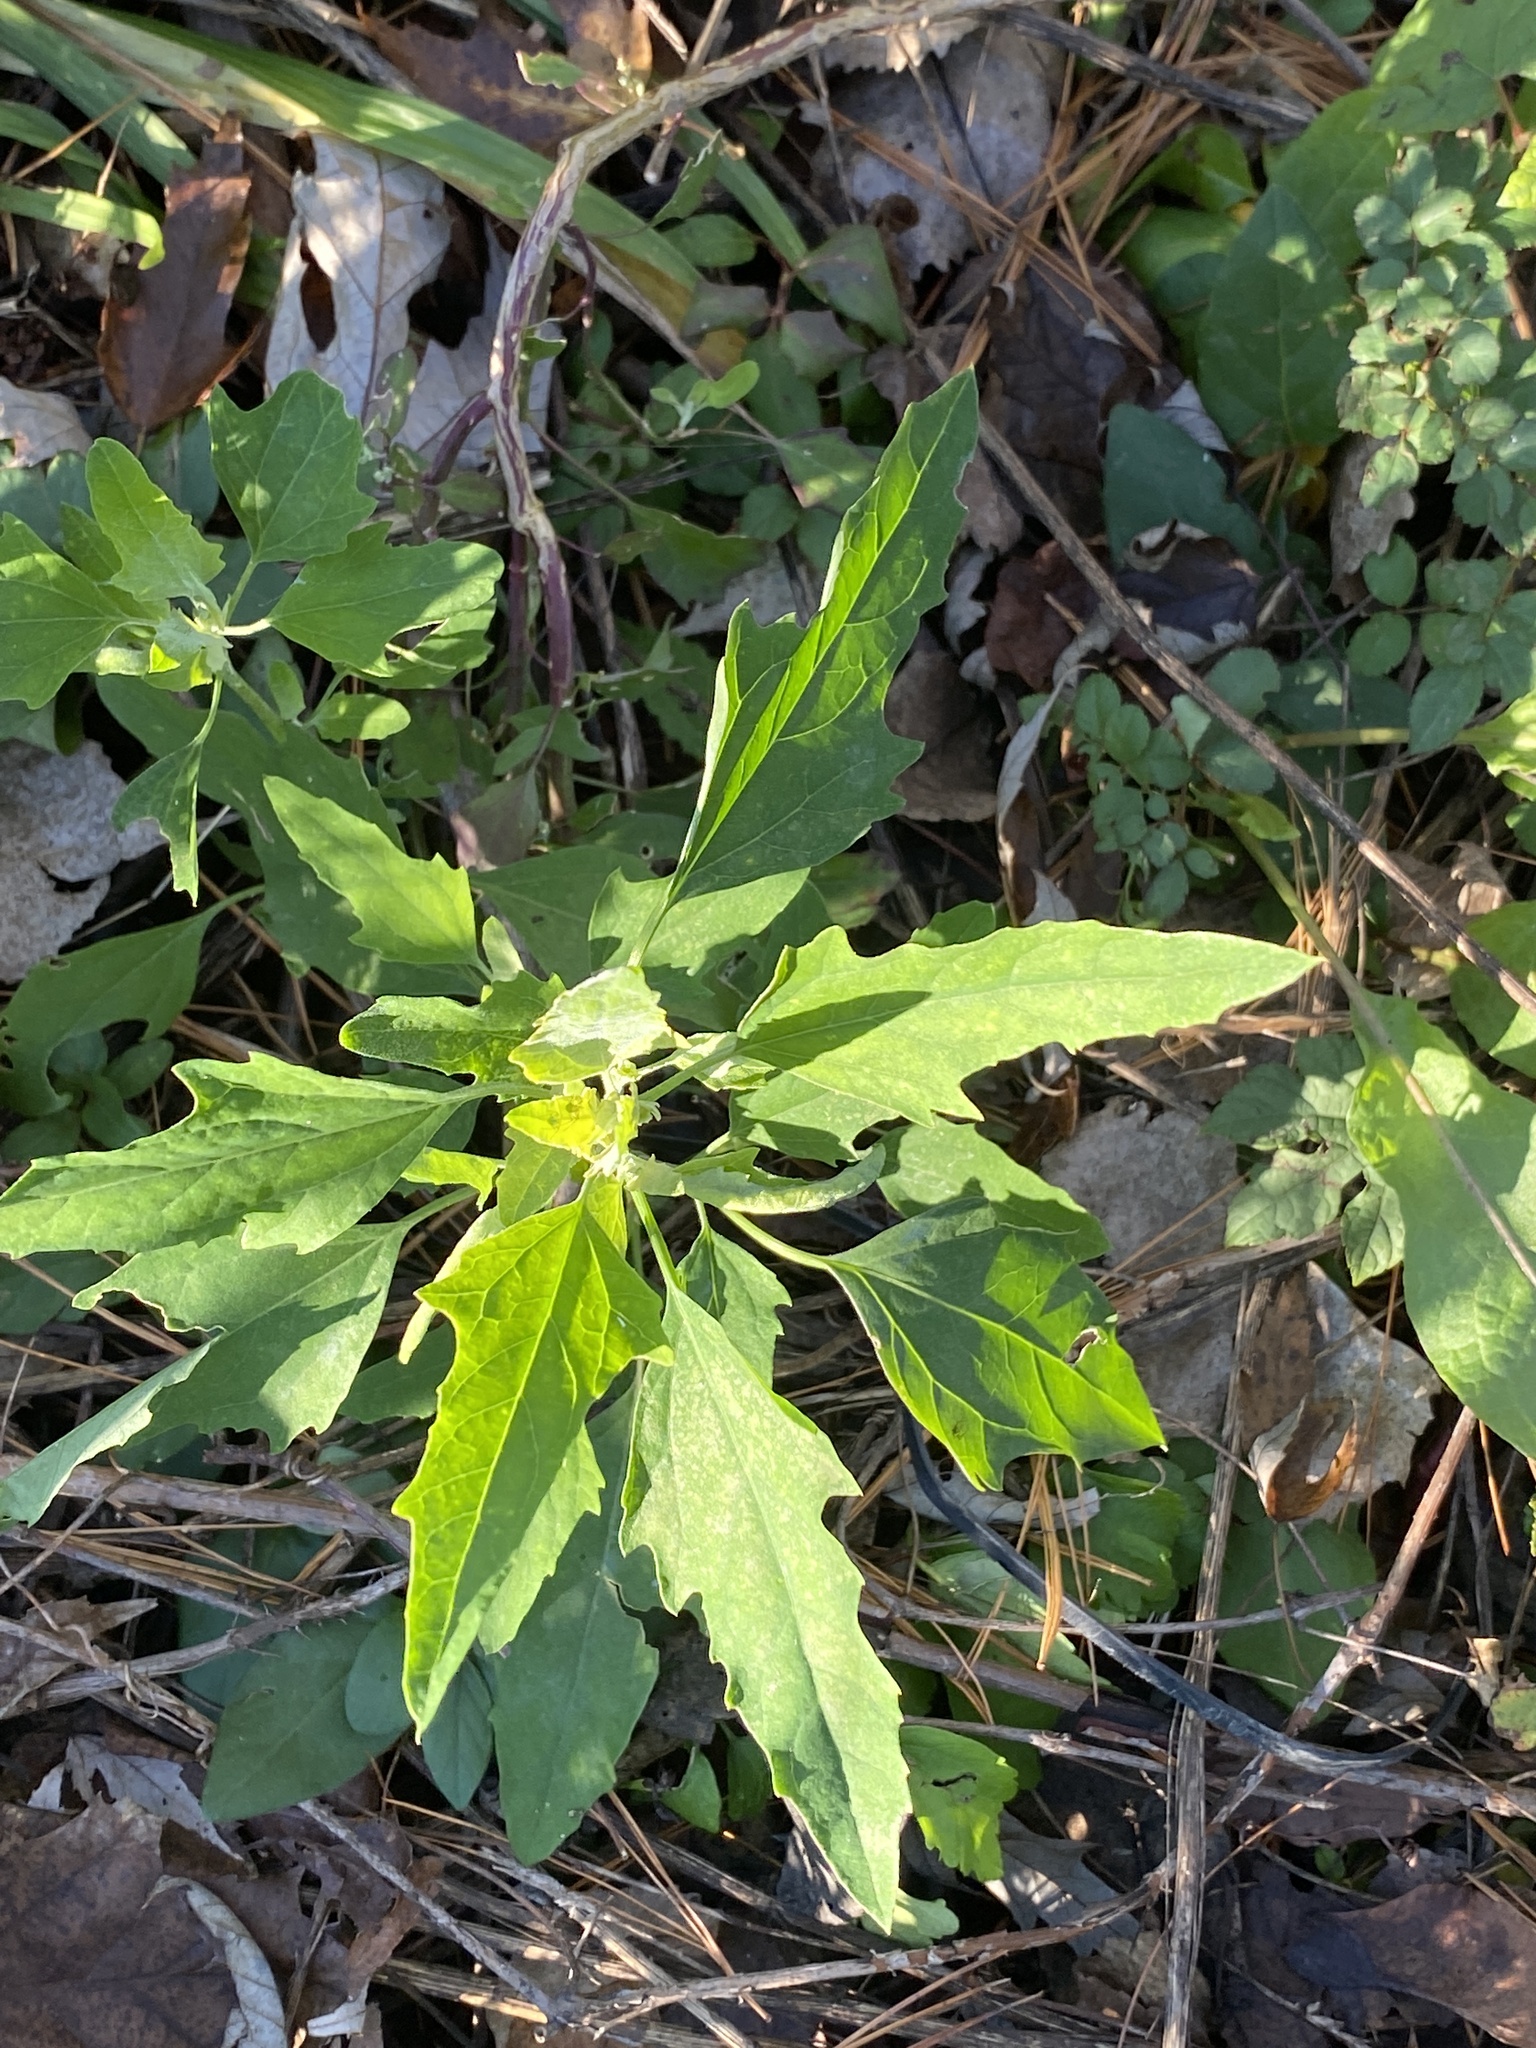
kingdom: Plantae
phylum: Tracheophyta
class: Magnoliopsida
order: Caryophyllales
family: Amaranthaceae
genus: Chenopodium
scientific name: Chenopodium album
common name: Fat-hen
